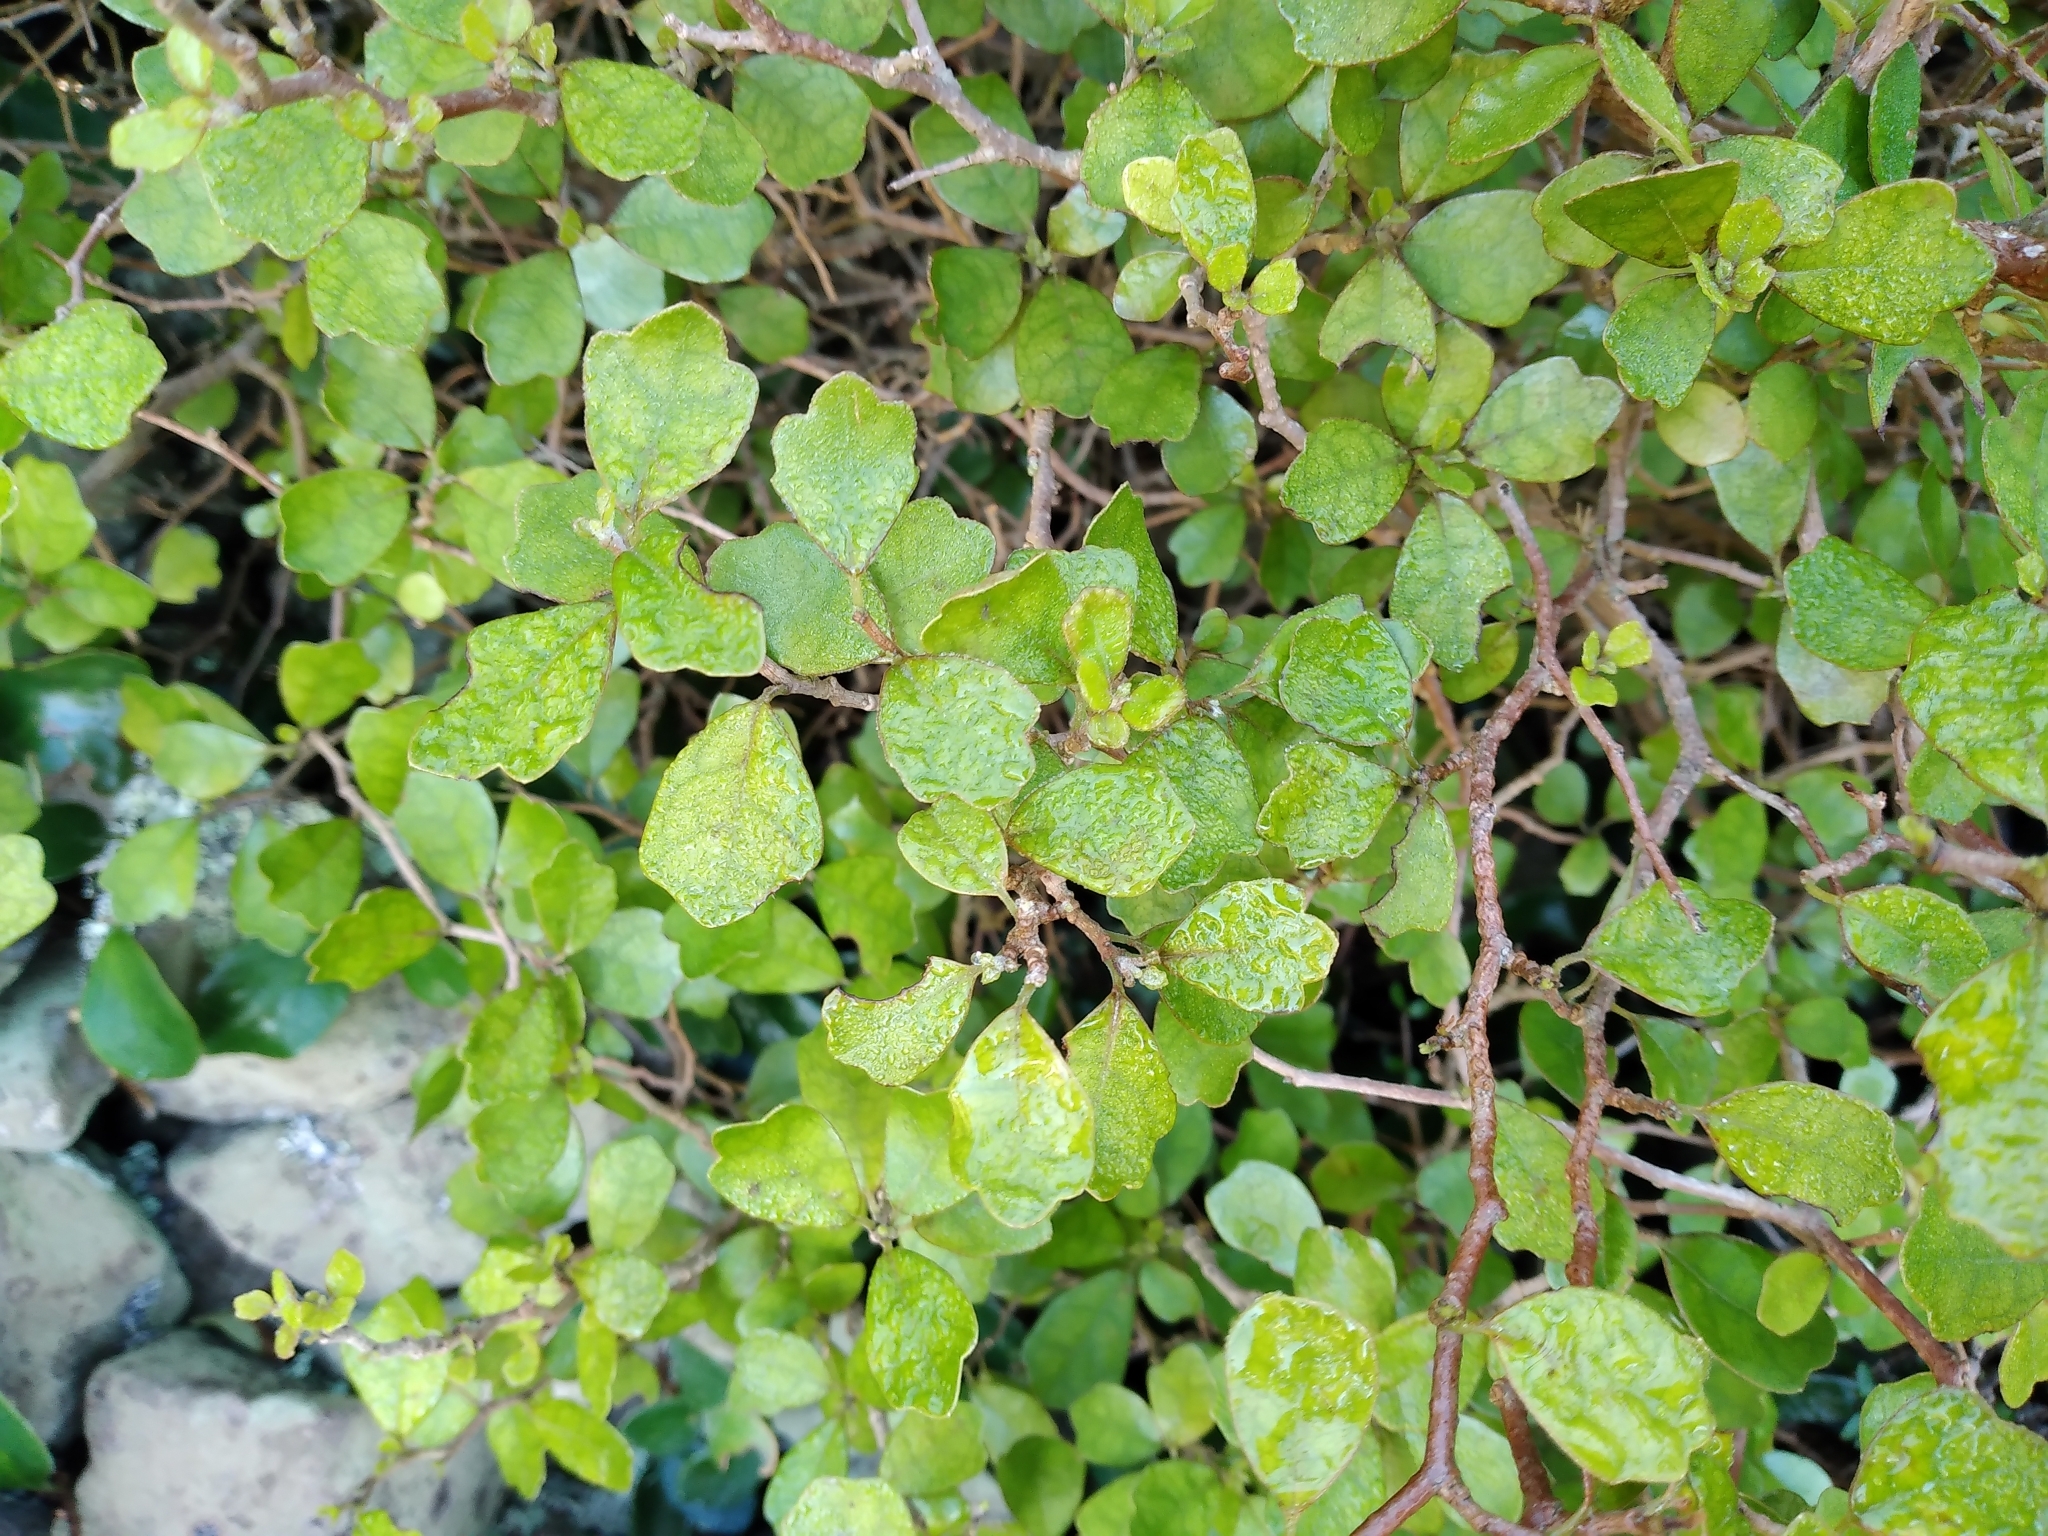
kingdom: Plantae
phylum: Tracheophyta
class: Magnoliopsida
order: Apiales
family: Pennantiaceae
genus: Pennantia
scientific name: Pennantia corymbosa
